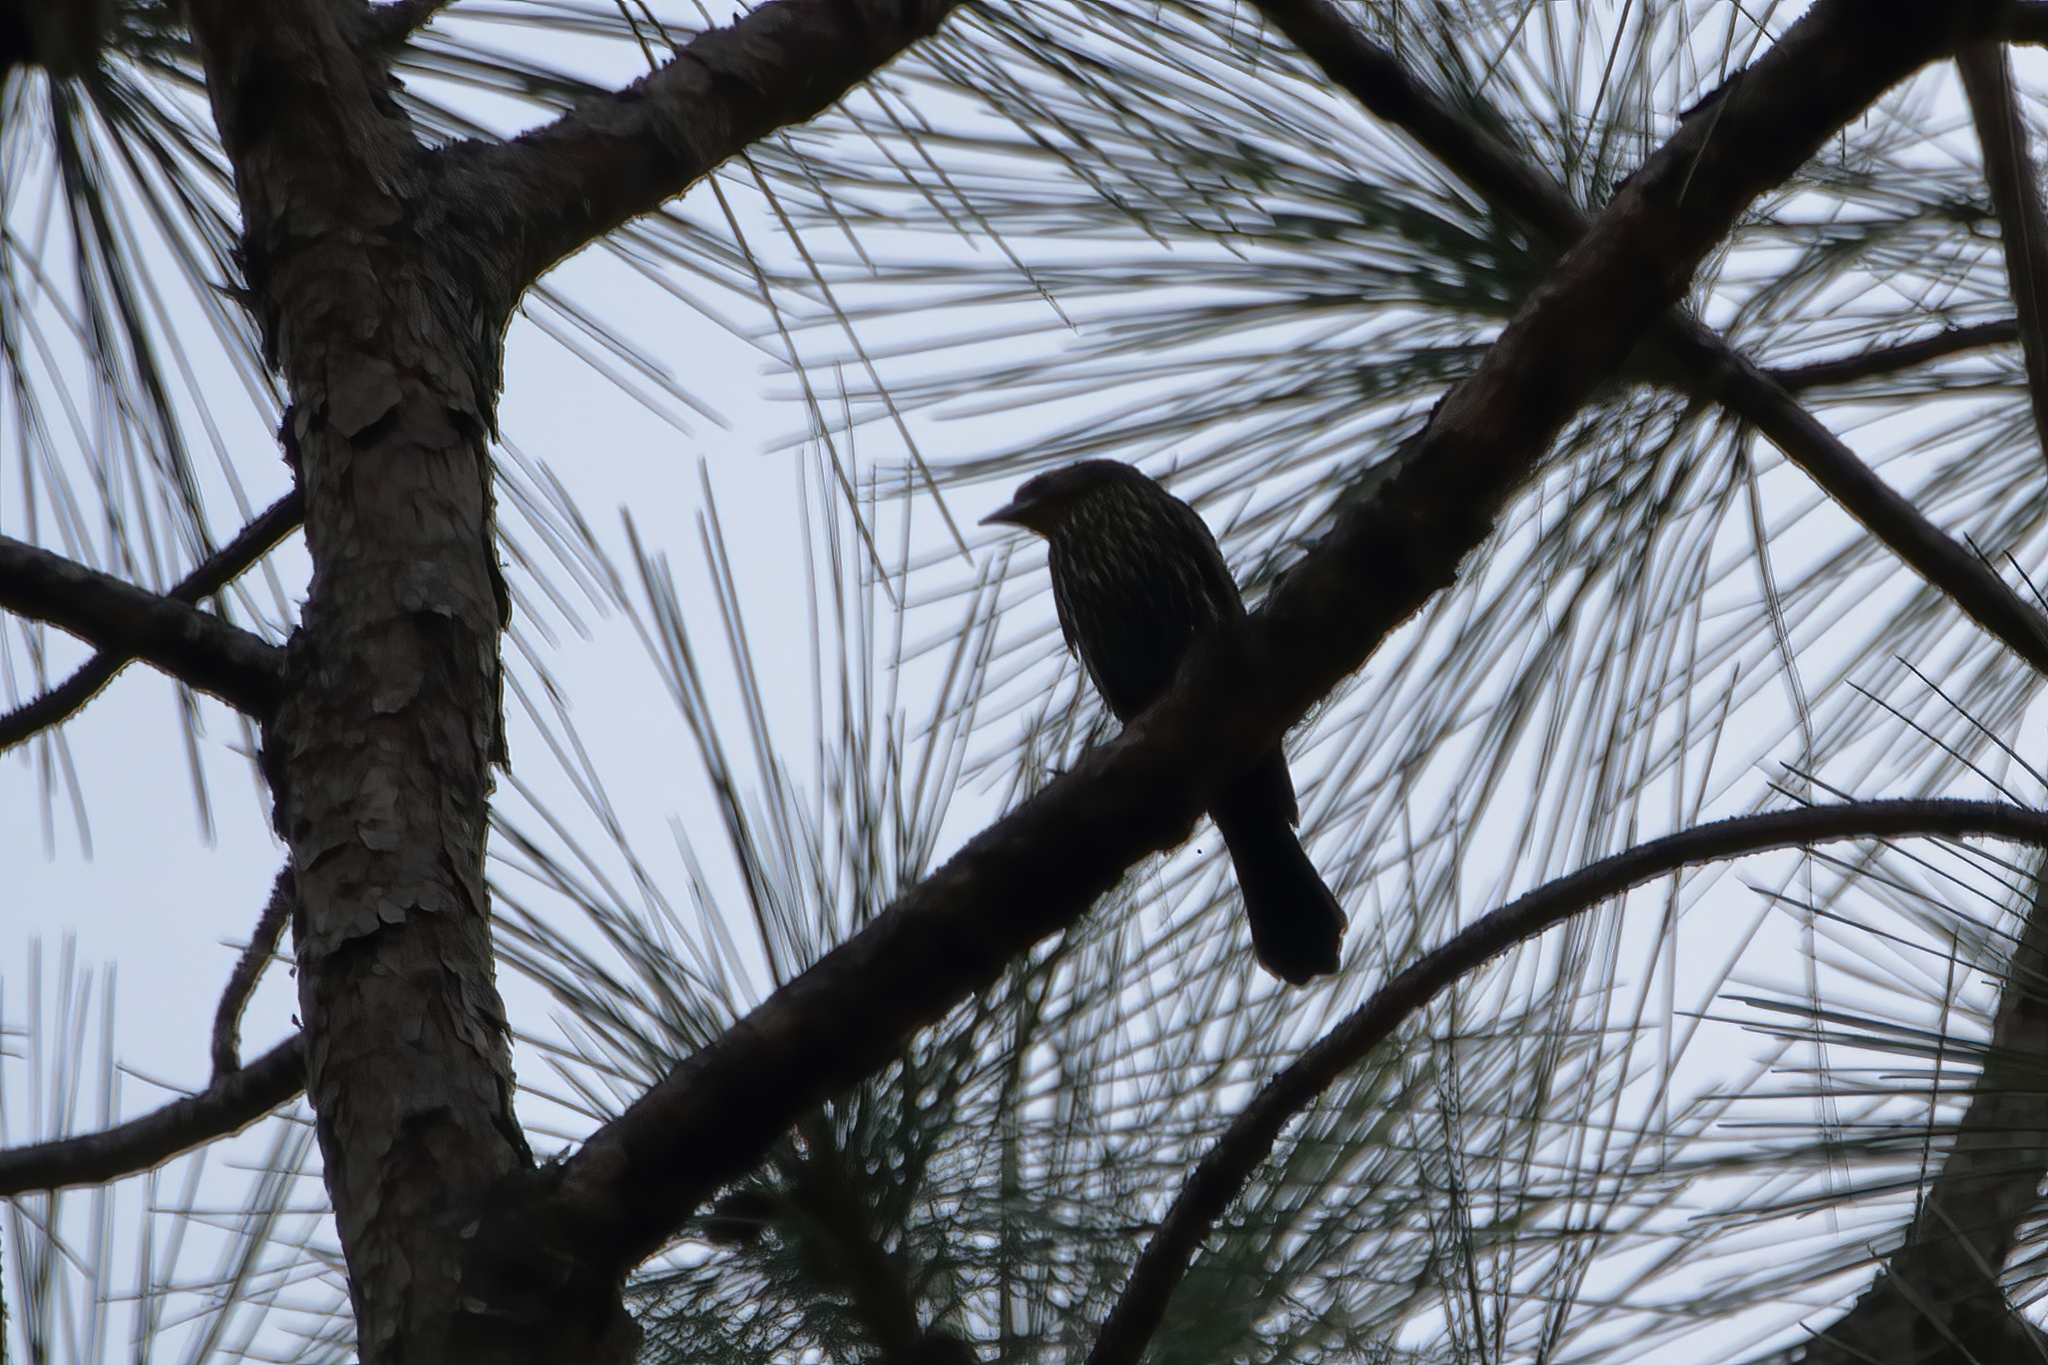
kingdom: Animalia
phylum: Chordata
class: Aves
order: Passeriformes
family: Icteridae
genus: Agelaius
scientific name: Agelaius phoeniceus
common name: Red-winged blackbird
